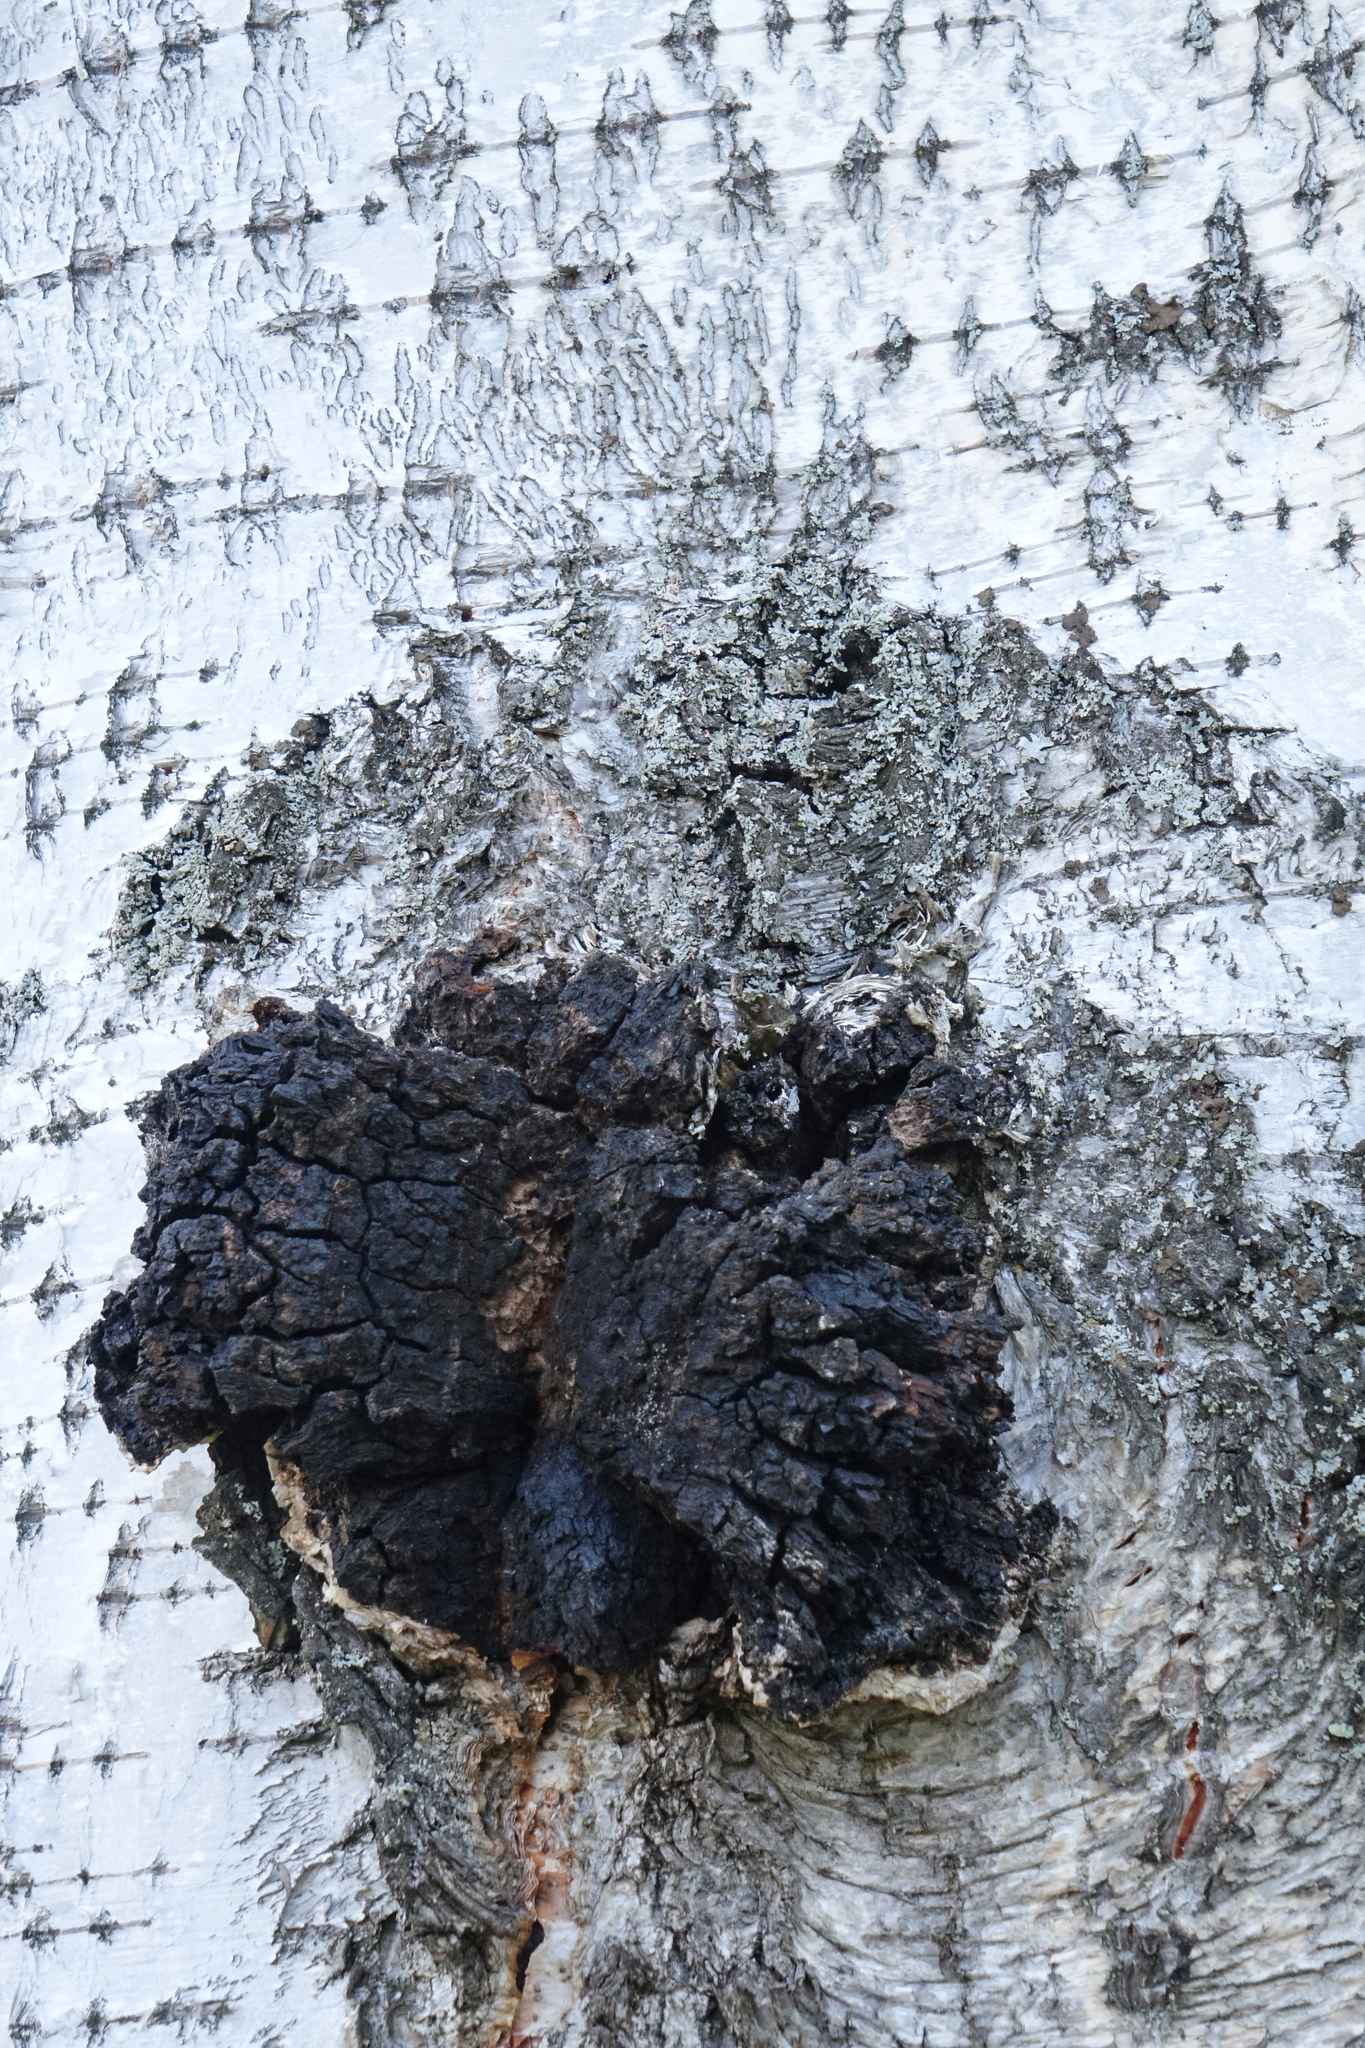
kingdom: Fungi
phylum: Basidiomycota
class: Agaricomycetes
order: Hymenochaetales
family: Hymenochaetaceae
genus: Inonotus
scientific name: Inonotus obliquus
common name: Chaga
